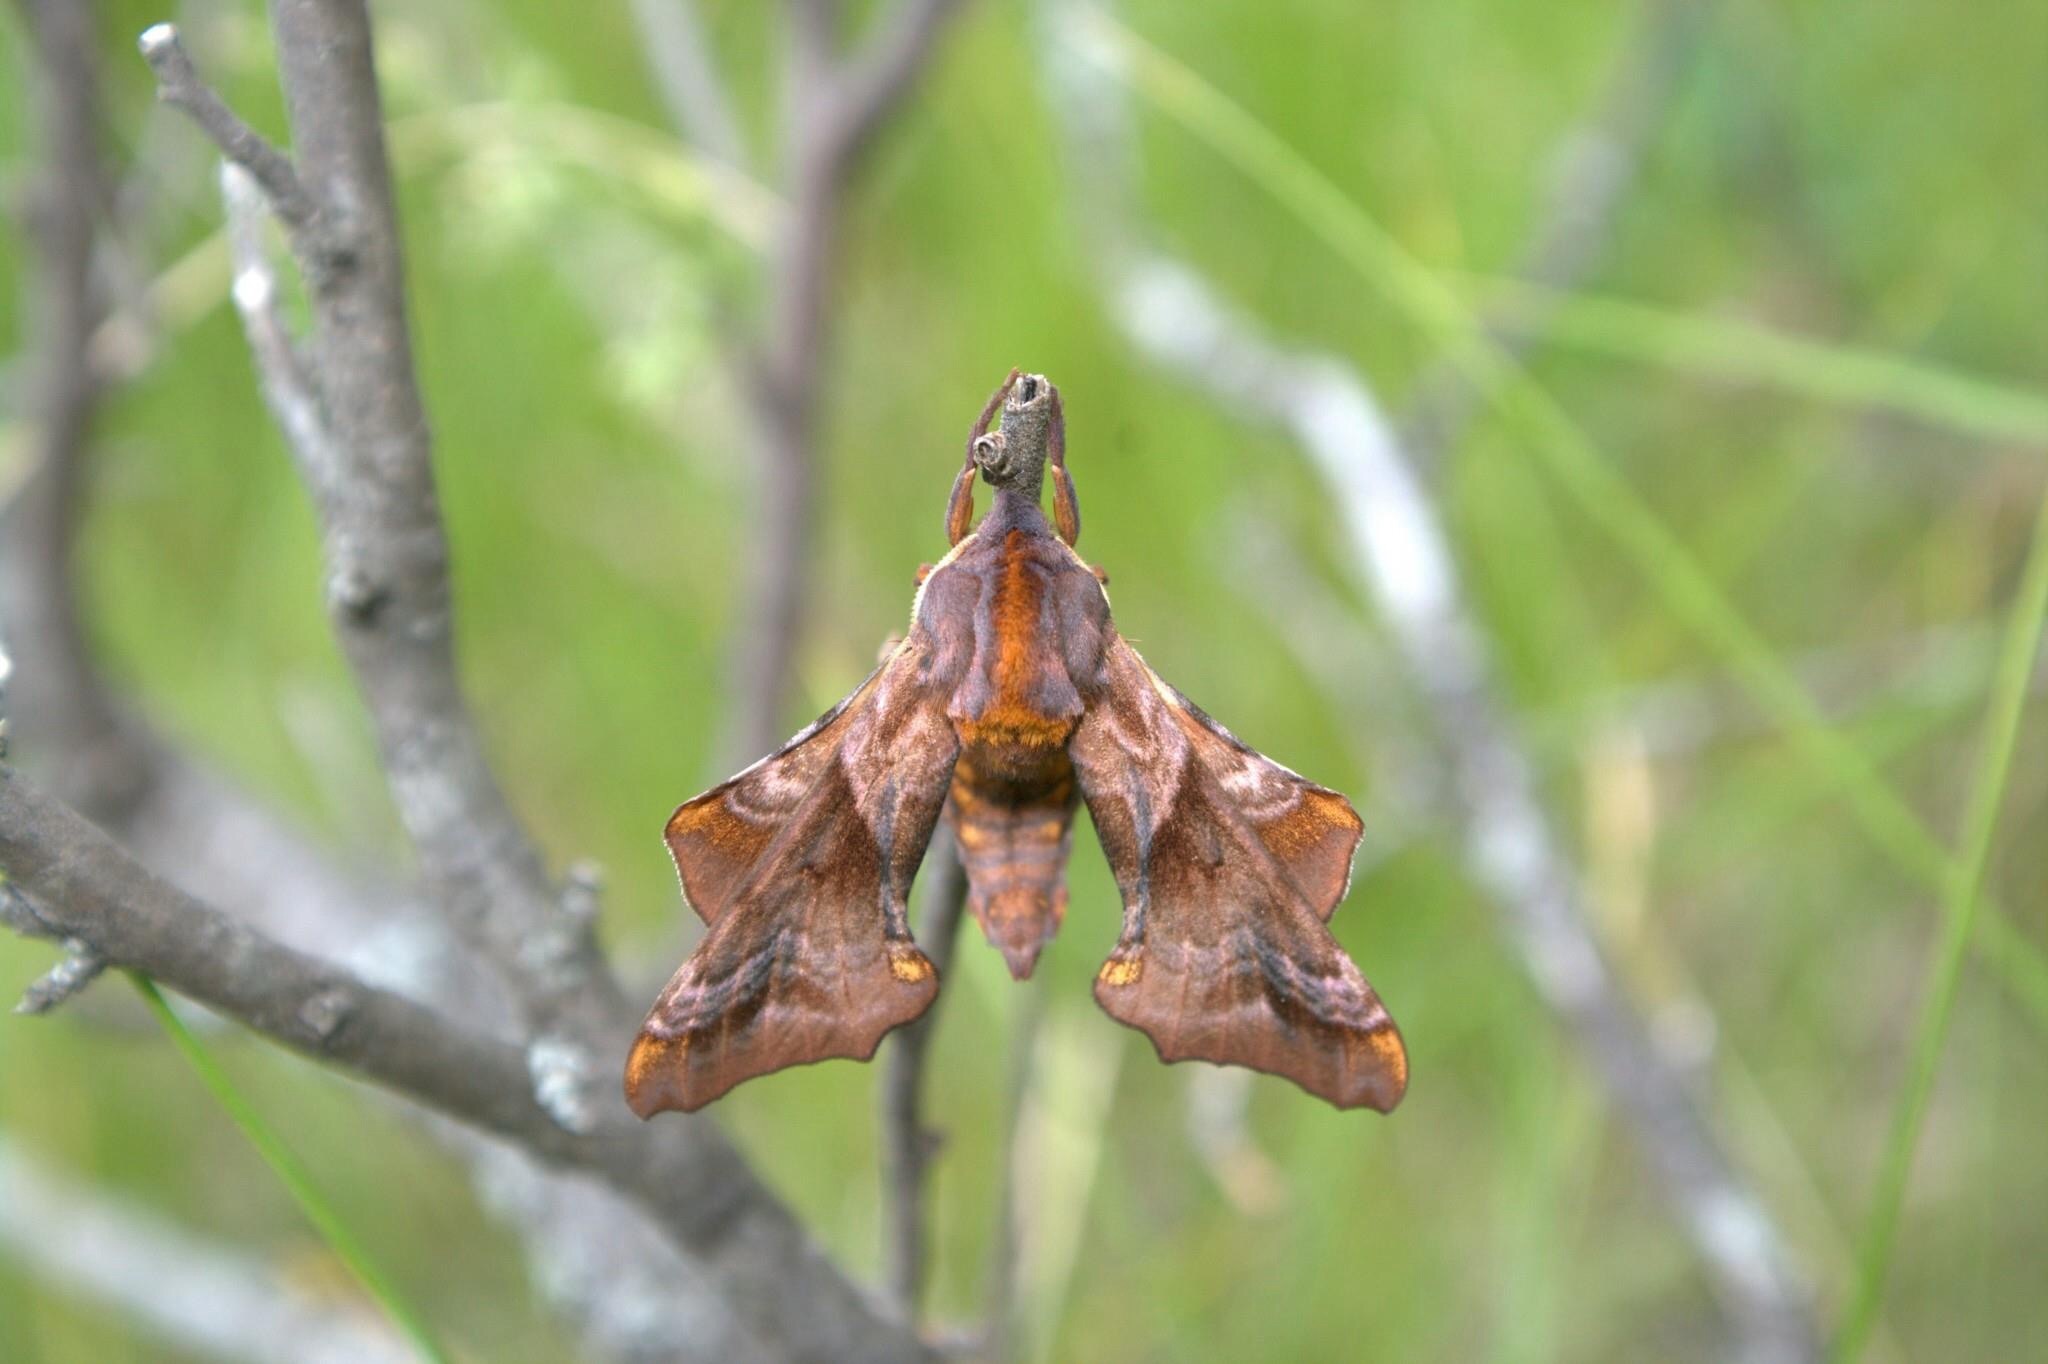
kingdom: Animalia
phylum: Arthropoda
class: Insecta
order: Lepidoptera
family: Sphingidae
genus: Paonias
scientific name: Paonias myops
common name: Small-eyed sphinx
